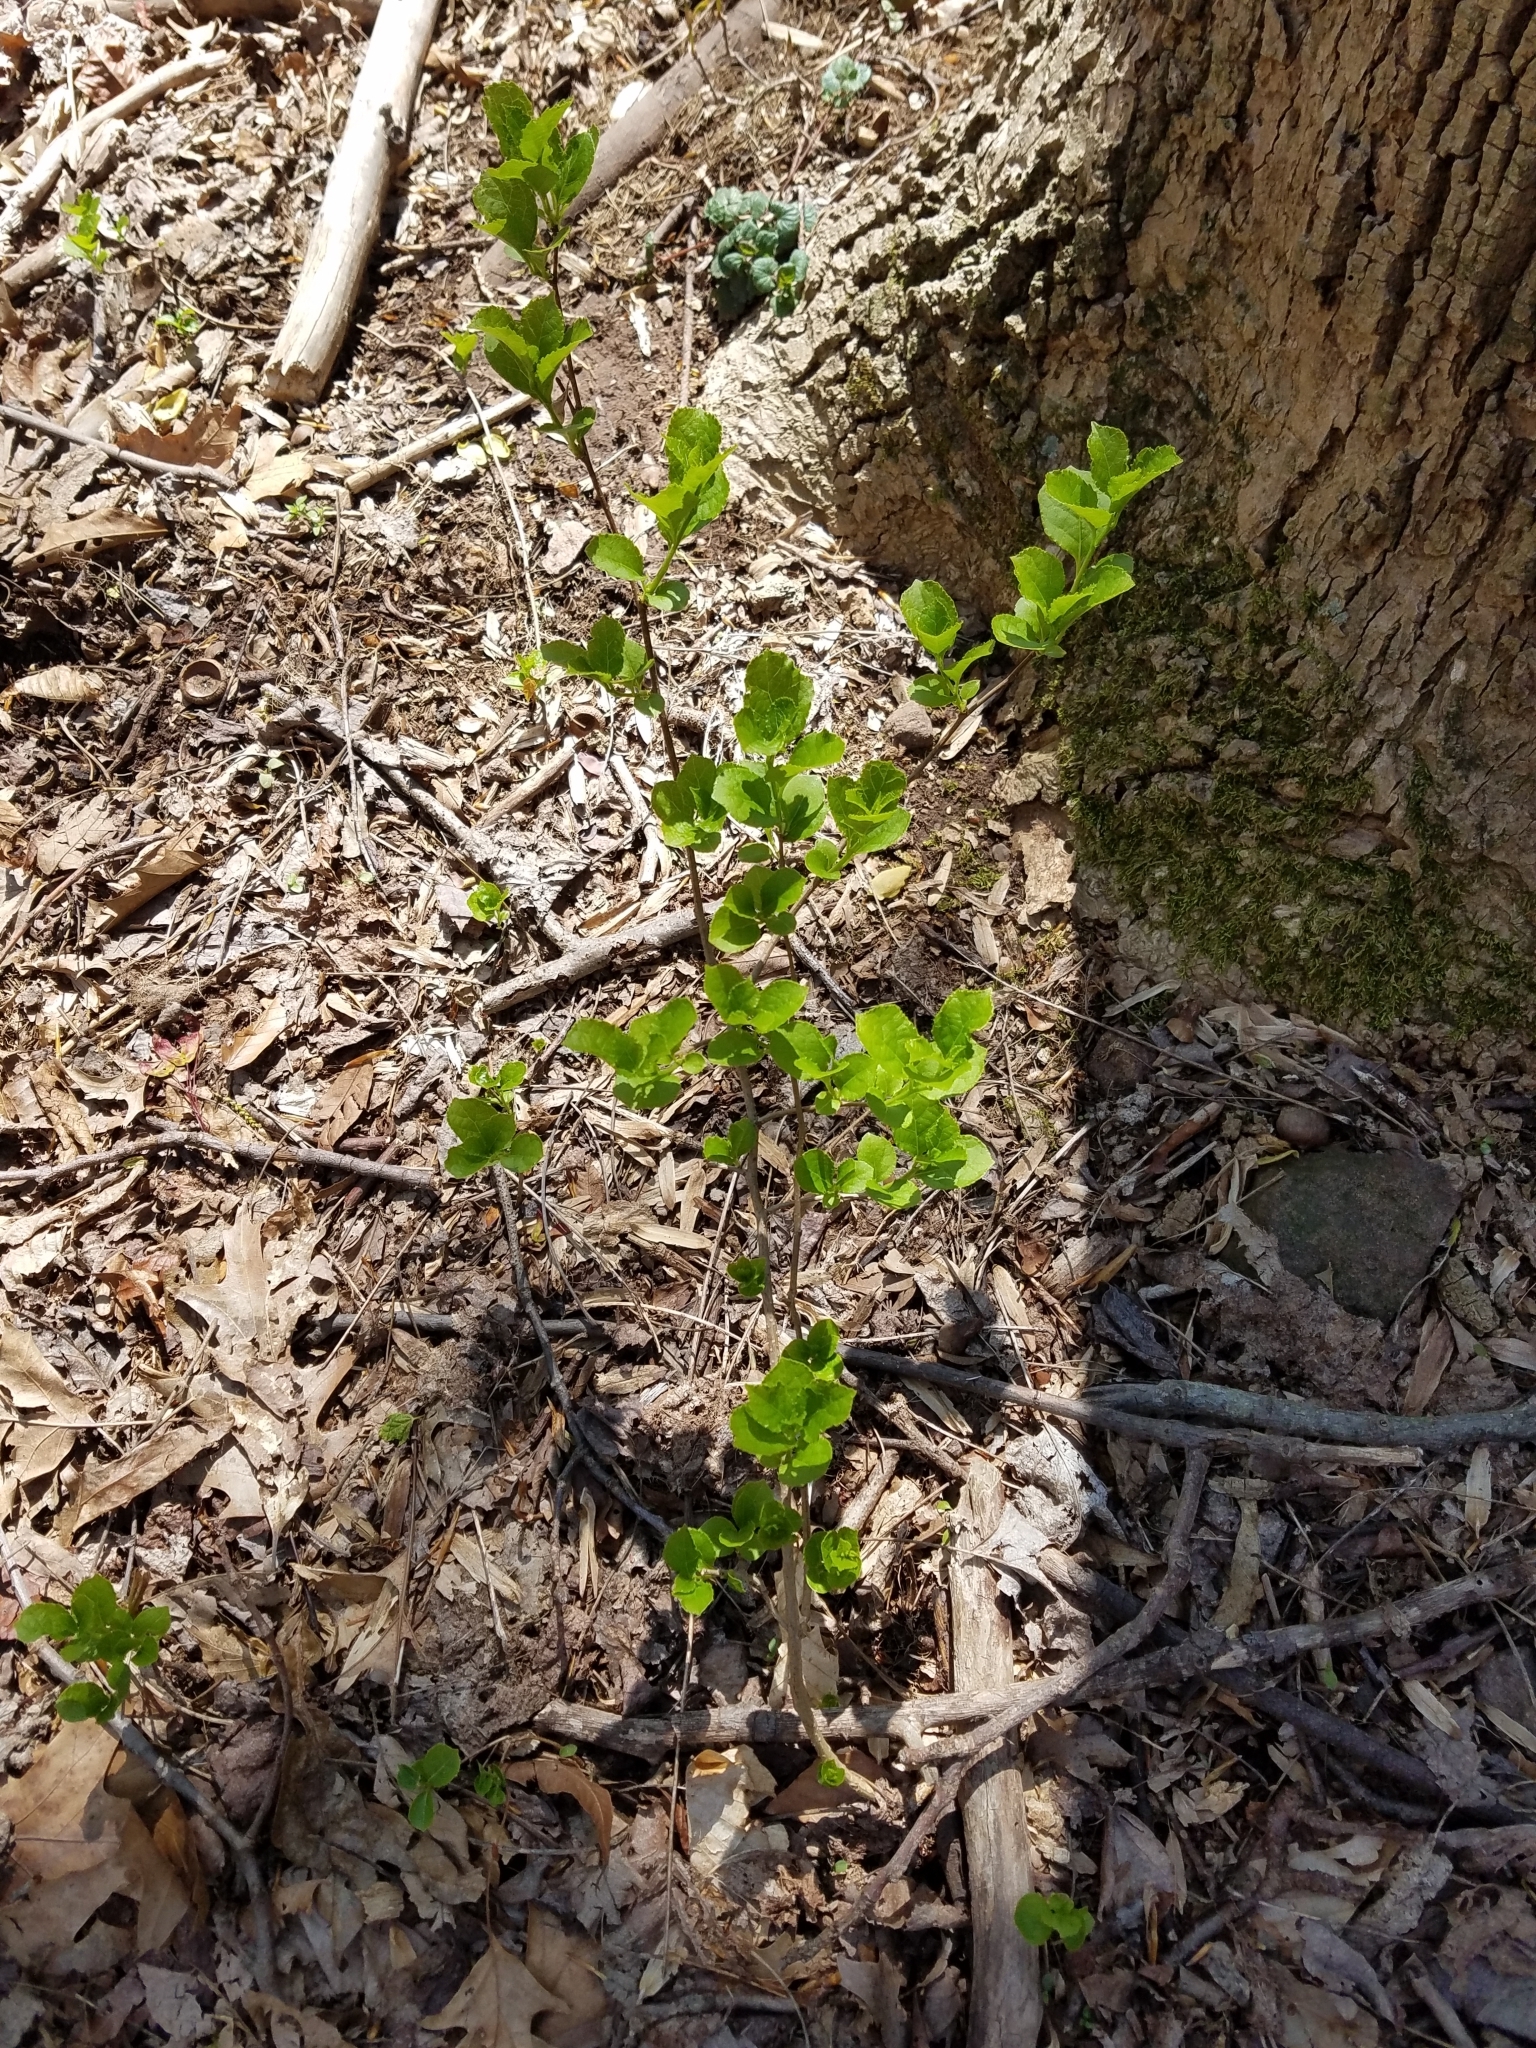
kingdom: Plantae
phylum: Tracheophyta
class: Magnoliopsida
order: Celastrales
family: Celastraceae
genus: Celastrus
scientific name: Celastrus orbiculatus
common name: Oriental bittersweet
